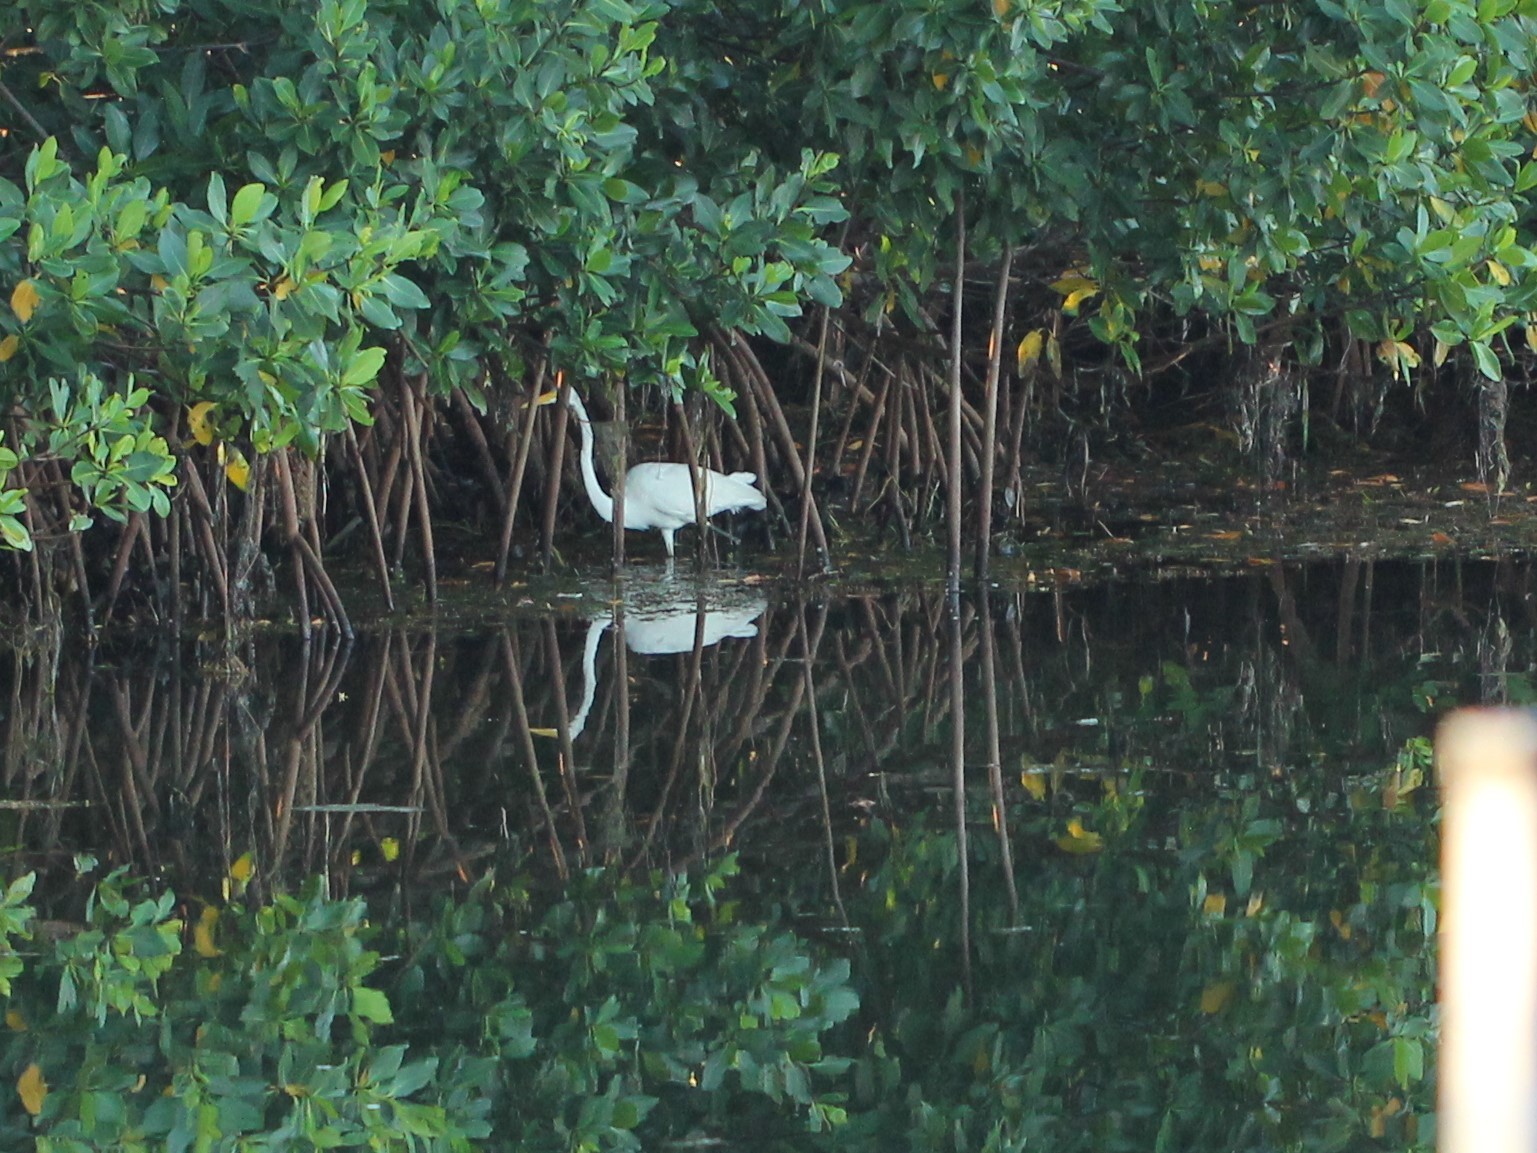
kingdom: Animalia
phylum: Chordata
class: Aves
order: Pelecaniformes
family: Ardeidae
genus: Ardea
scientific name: Ardea alba
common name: Great egret
